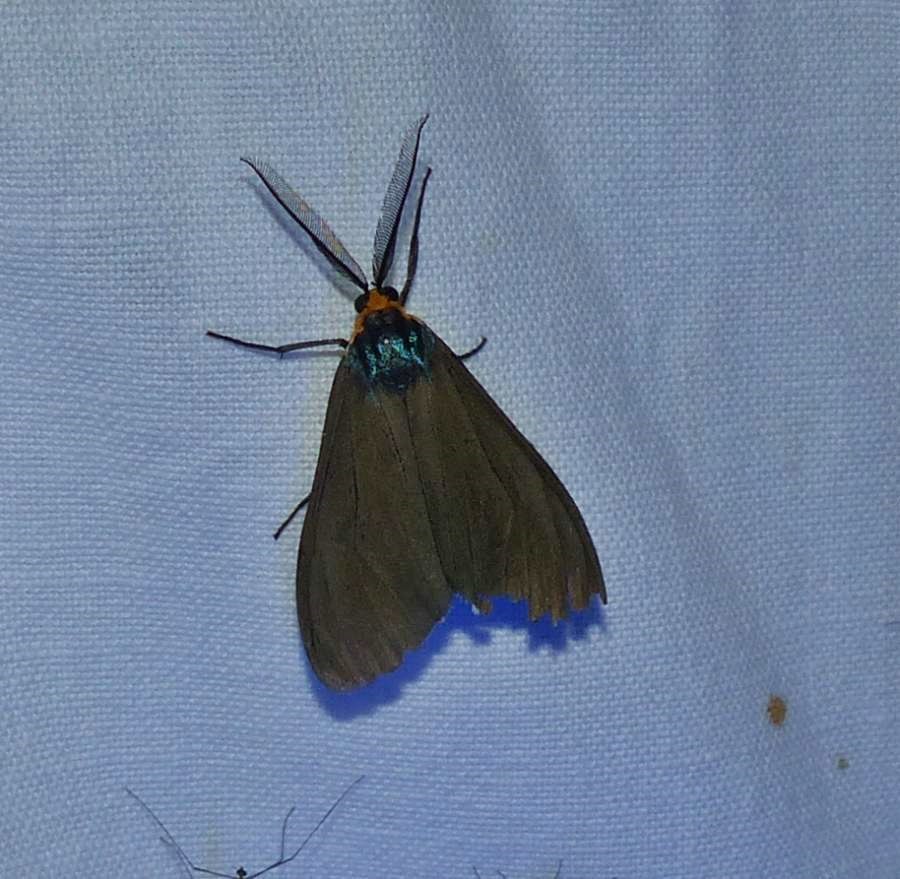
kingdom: Animalia
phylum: Arthropoda
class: Insecta
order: Lepidoptera
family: Erebidae
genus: Ctenucha
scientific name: Ctenucha virginica
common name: Virginia ctenucha moth
